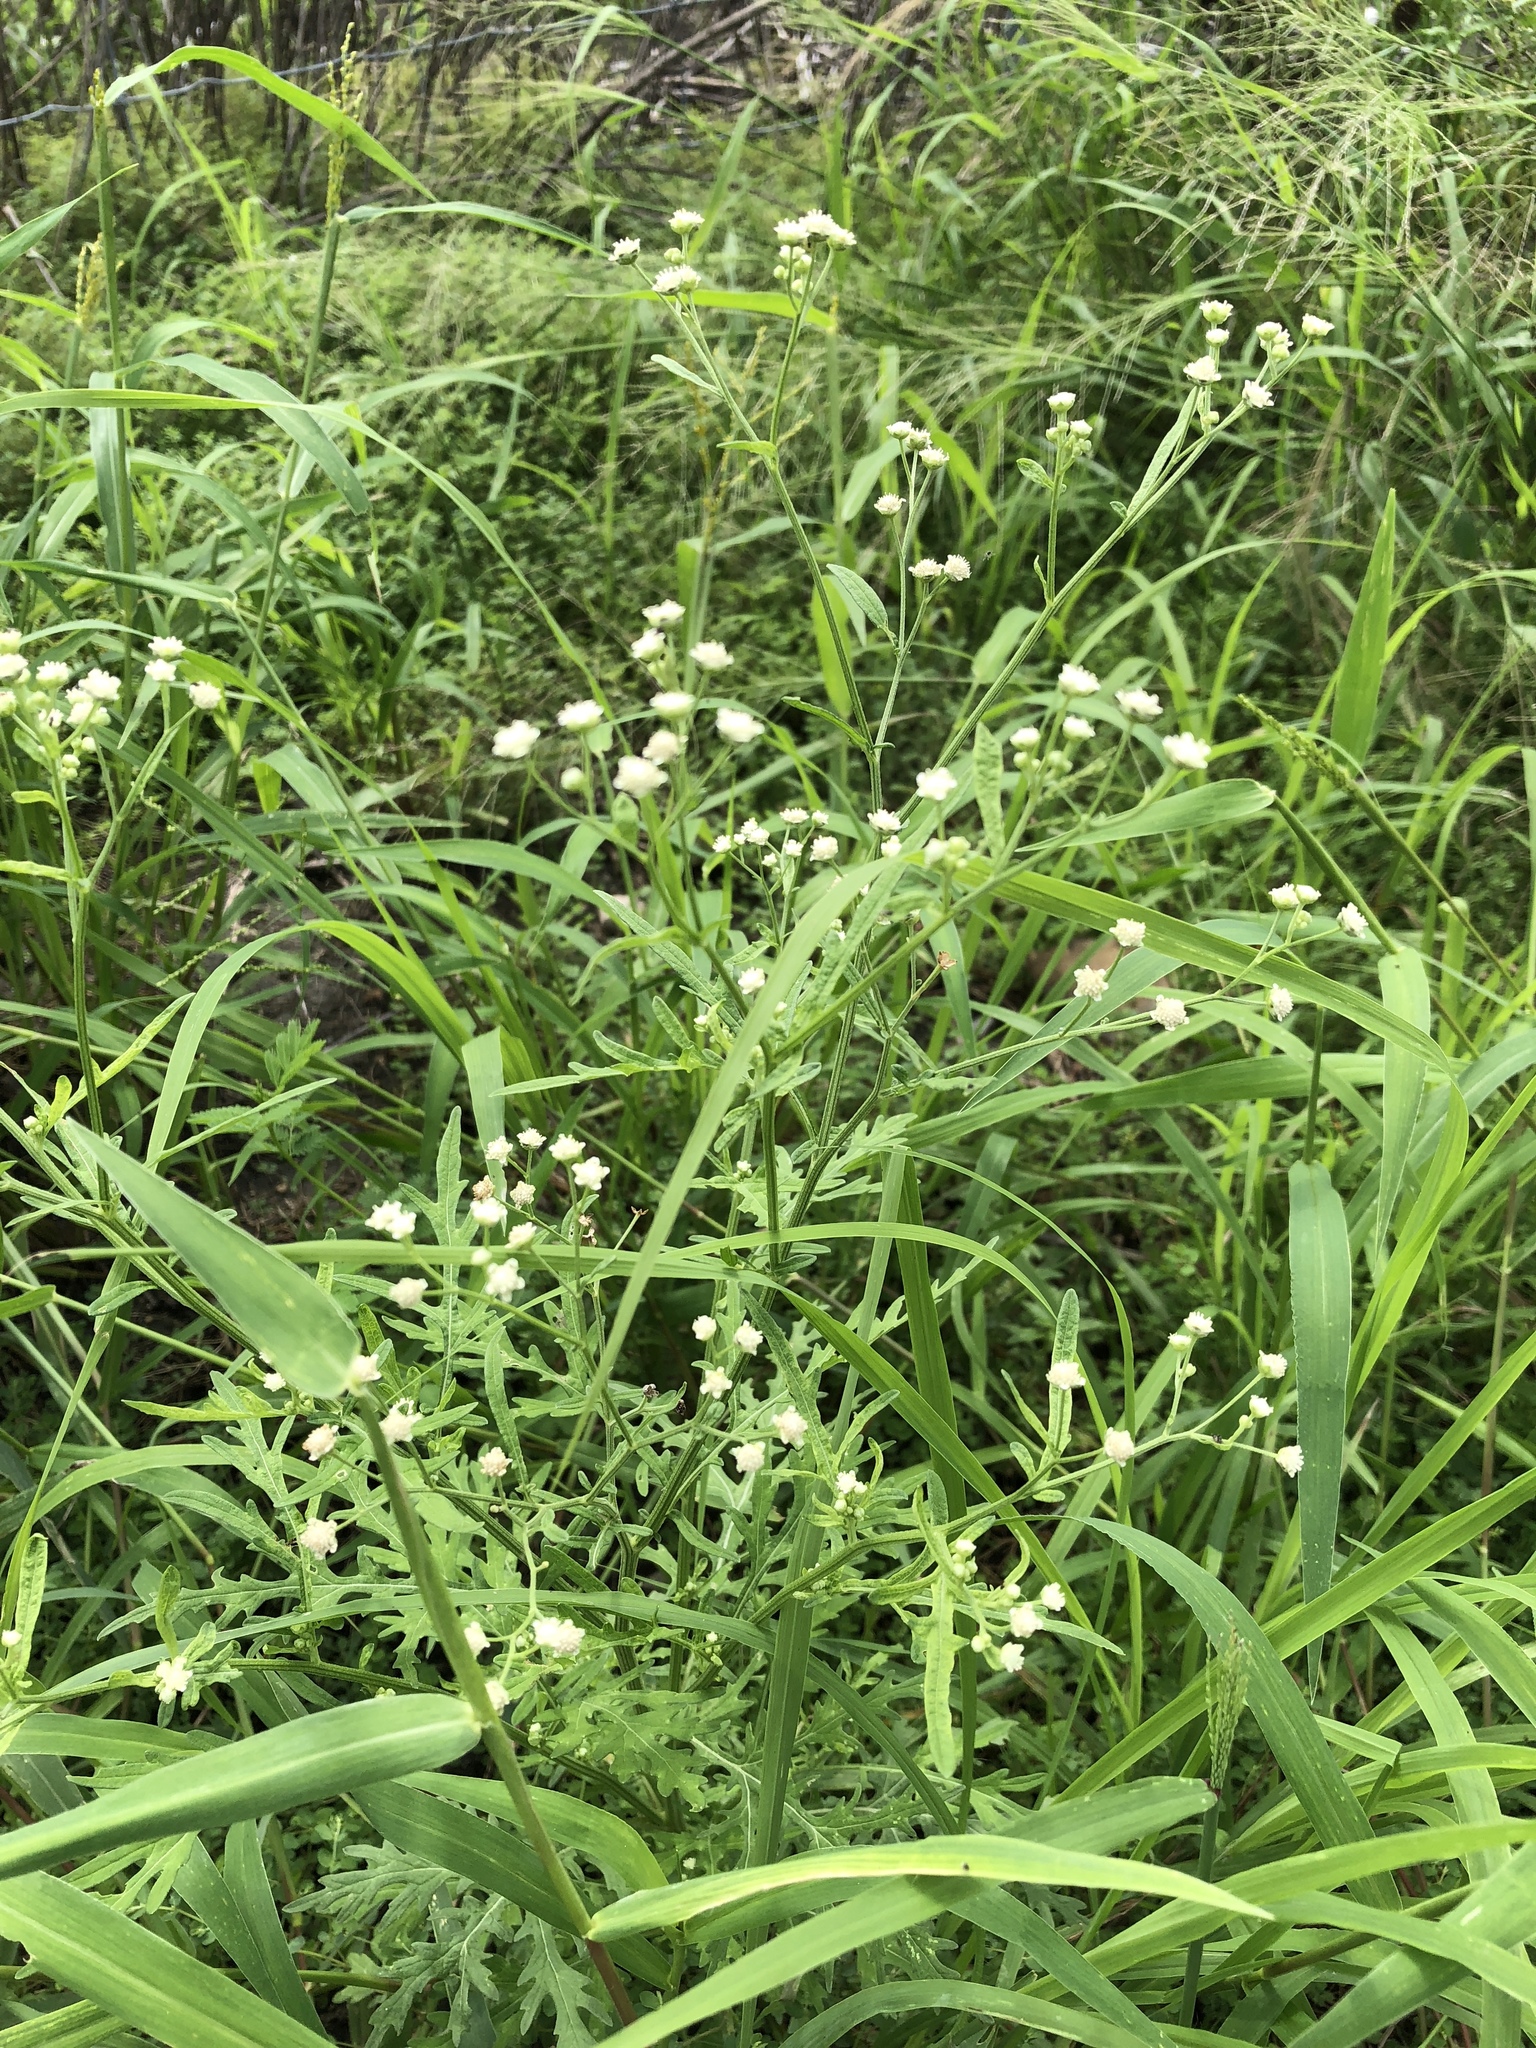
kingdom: Plantae
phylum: Tracheophyta
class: Magnoliopsida
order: Asterales
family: Asteraceae
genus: Parthenium
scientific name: Parthenium hysterophorus
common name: Santa maria feverfew
